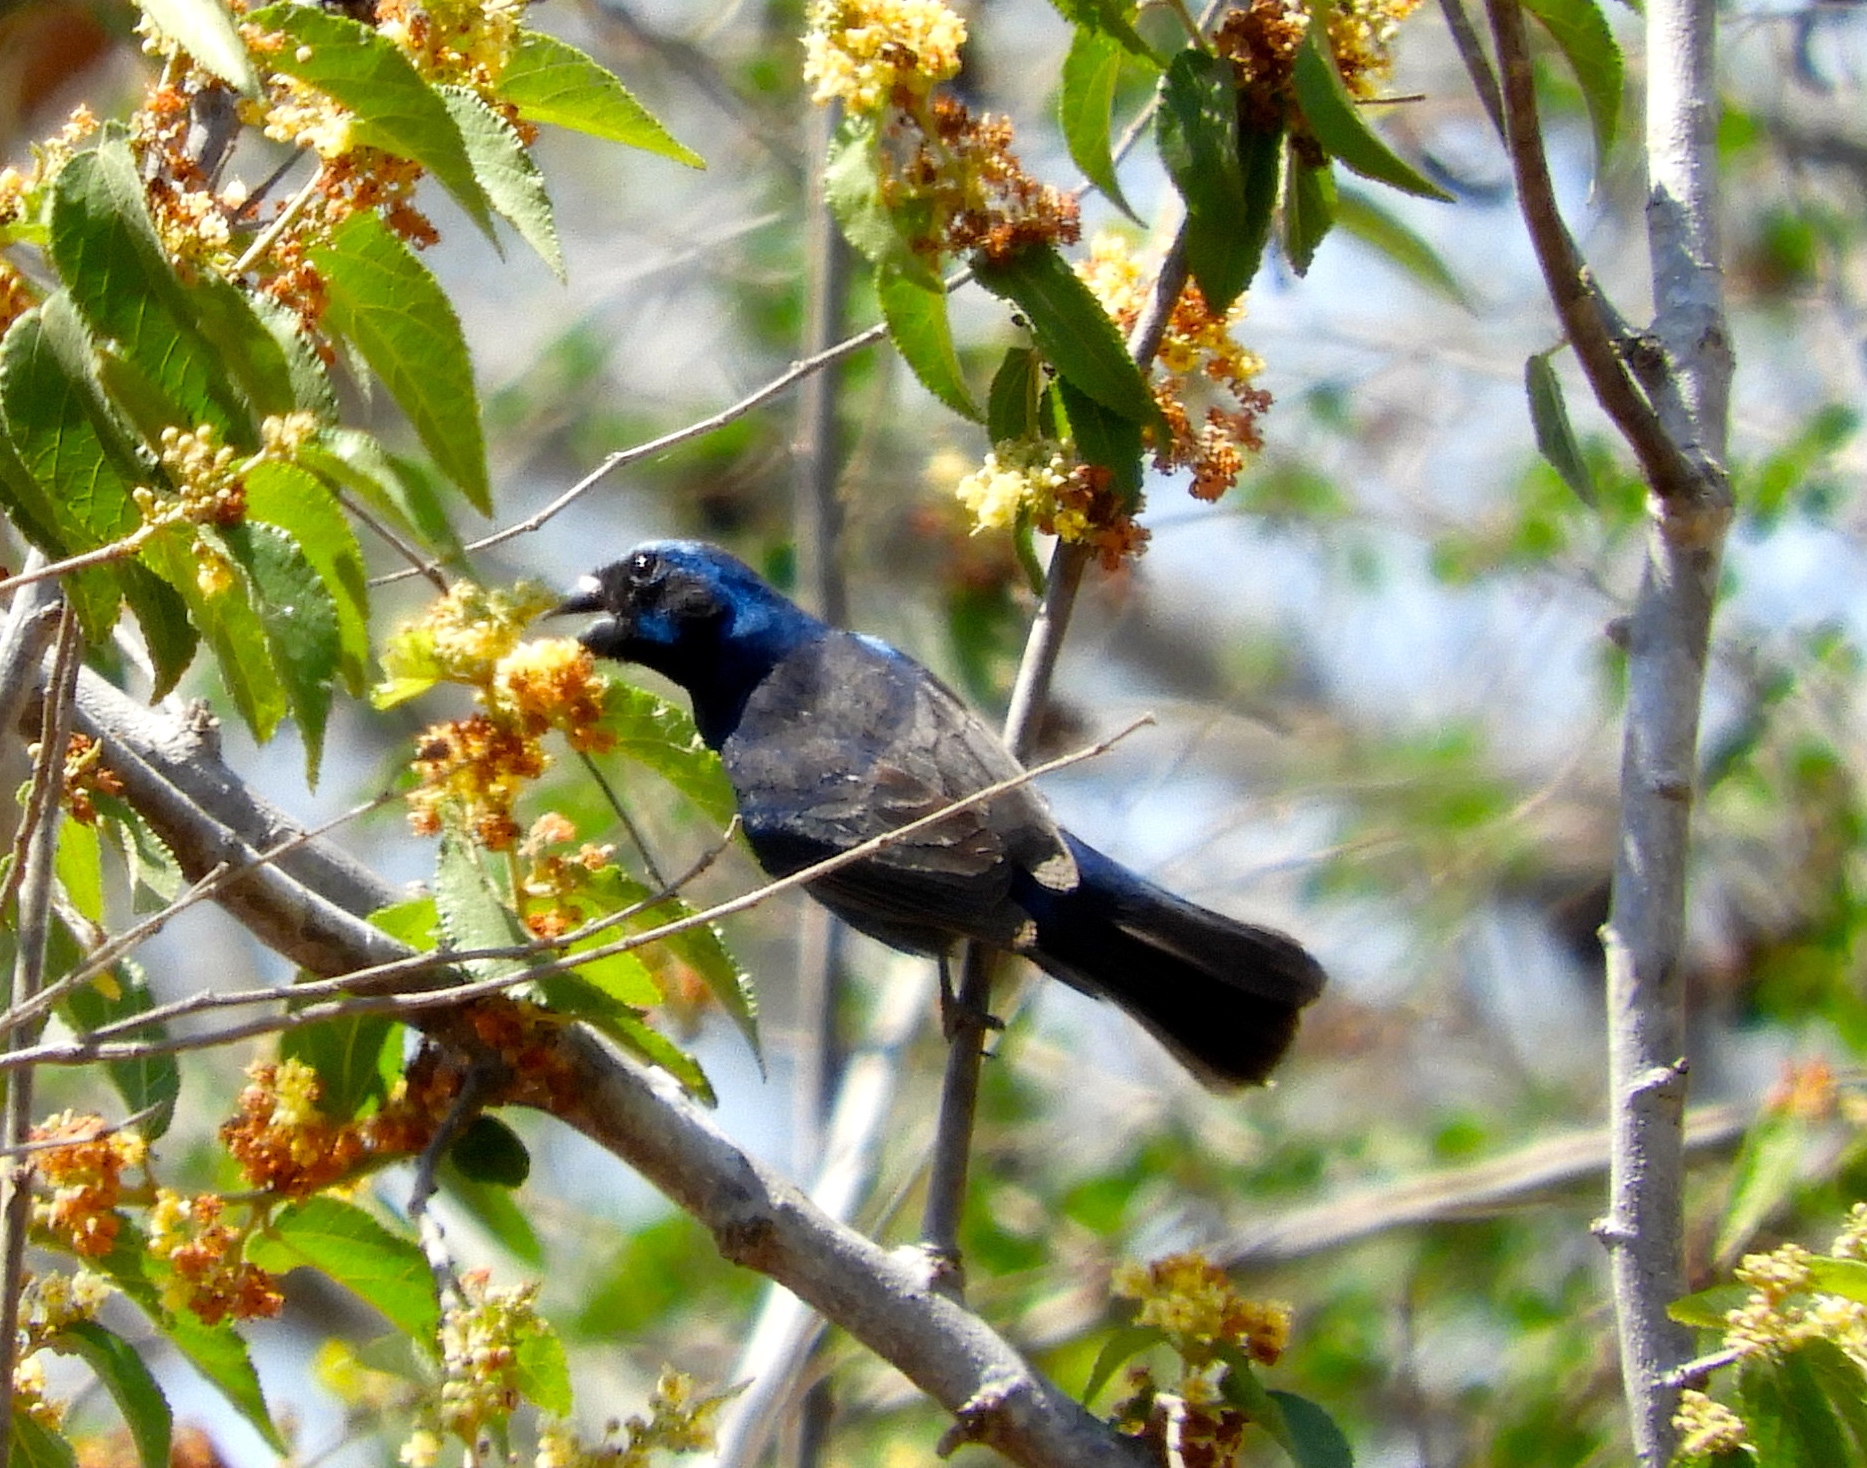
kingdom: Animalia
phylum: Chordata
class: Aves
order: Passeriformes
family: Cardinalidae
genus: Cyanocompsa
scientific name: Cyanocompsa parellina
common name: Blue bunting
